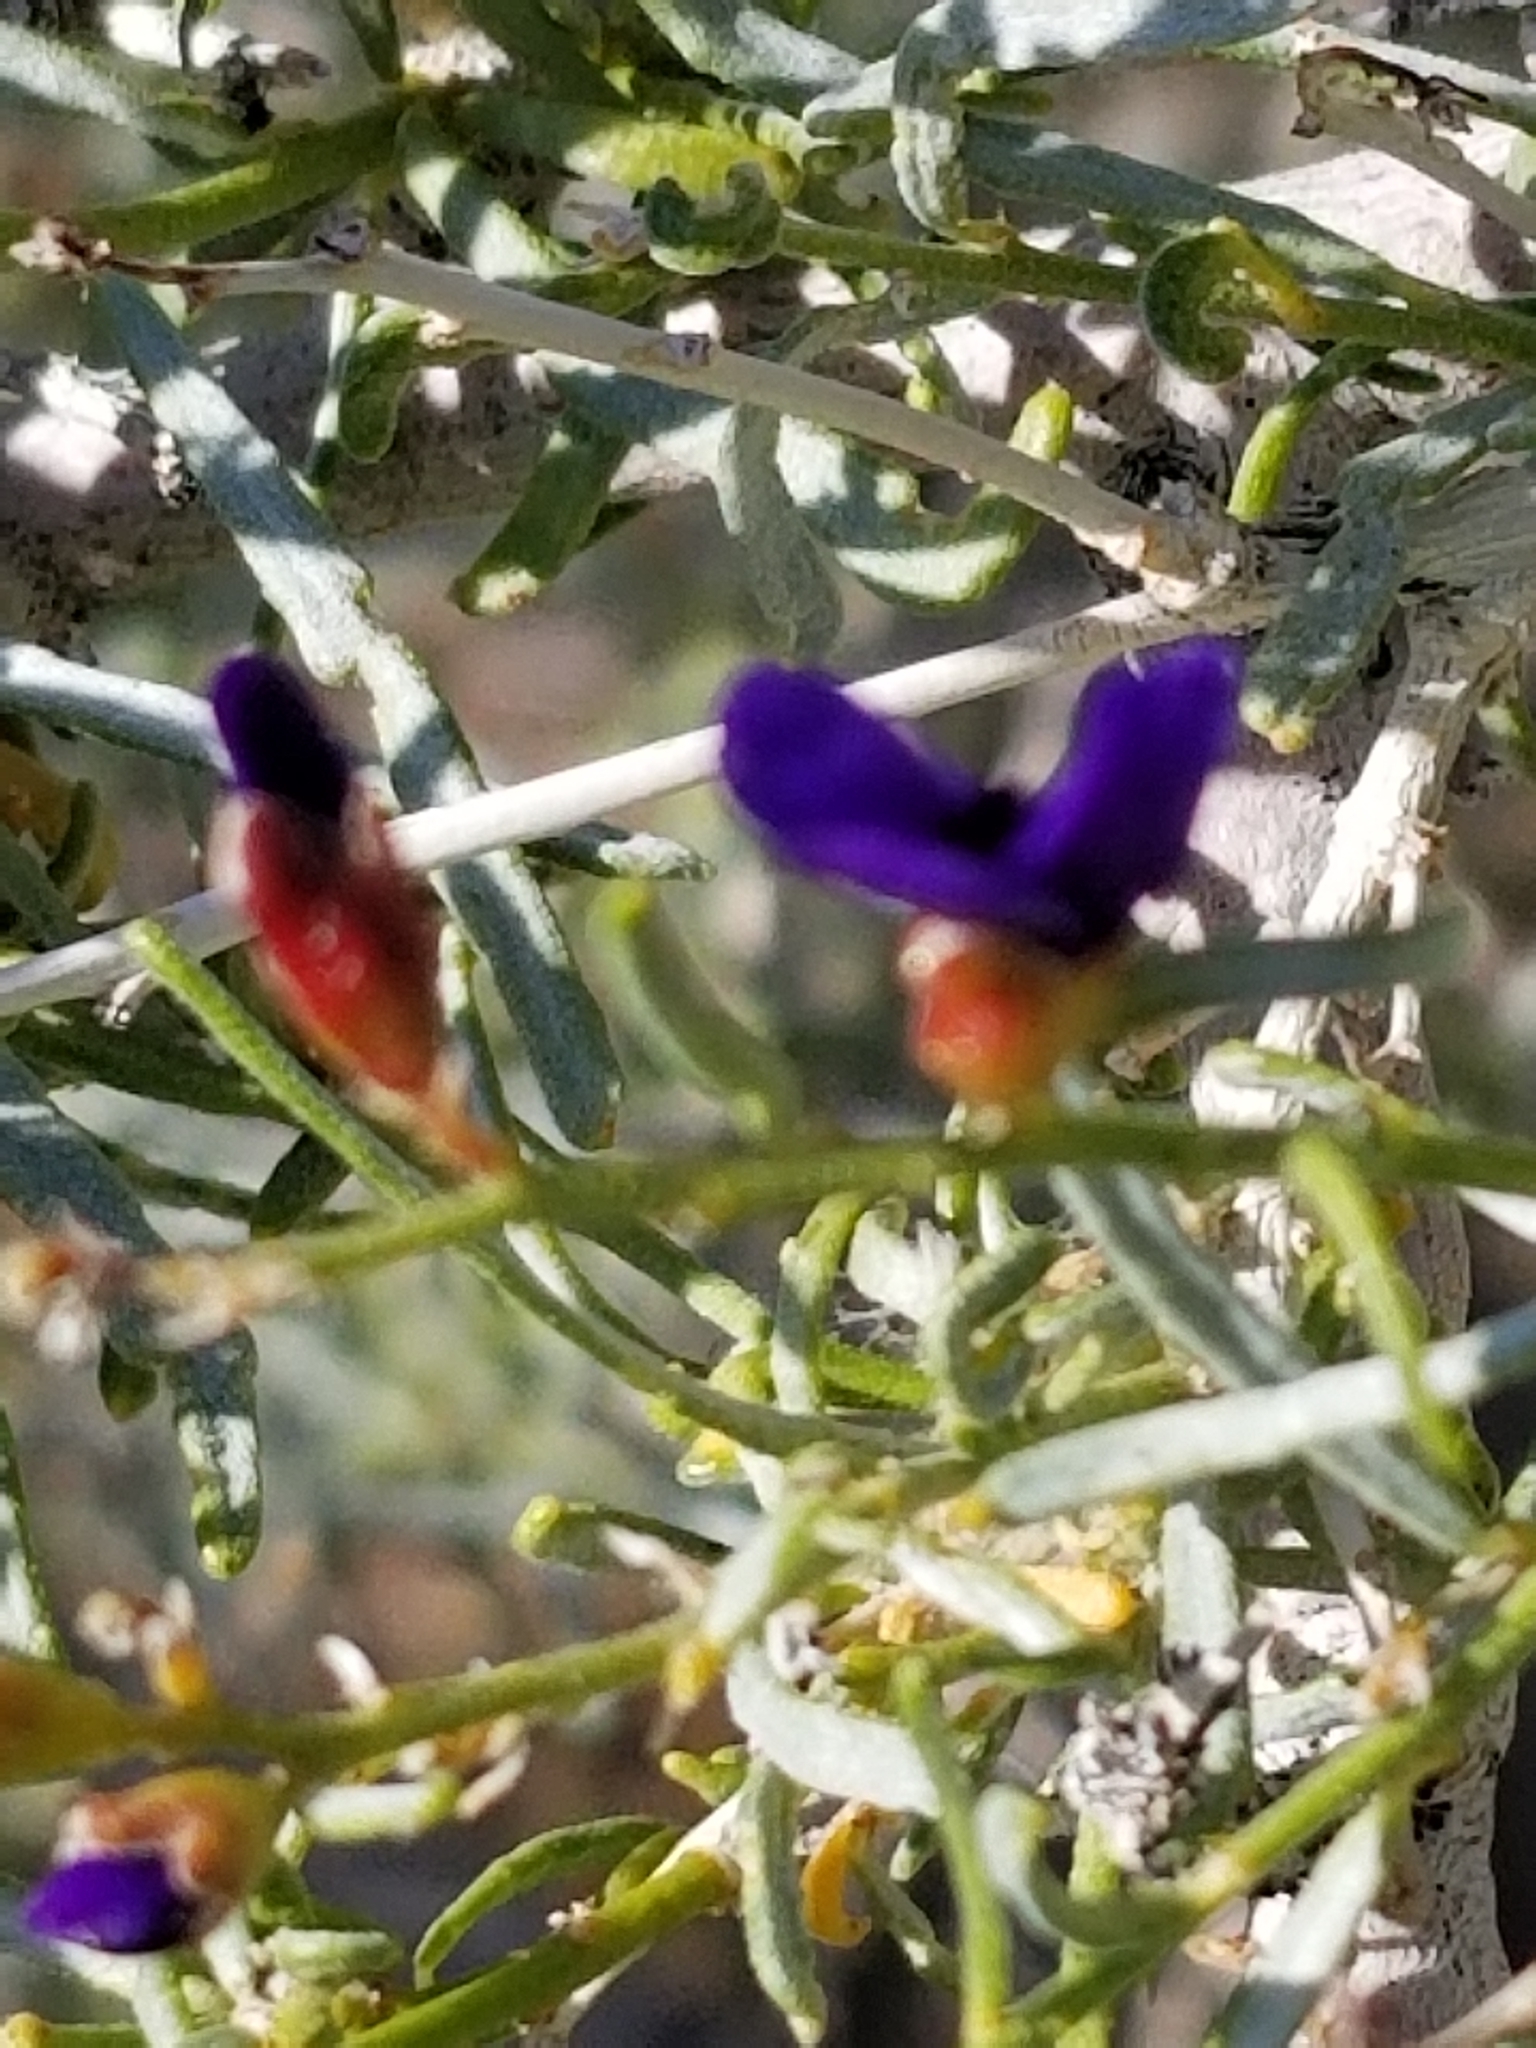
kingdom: Plantae
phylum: Tracheophyta
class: Magnoliopsida
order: Fabales
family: Fabaceae
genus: Psorothamnus
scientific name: Psorothamnus schottii
